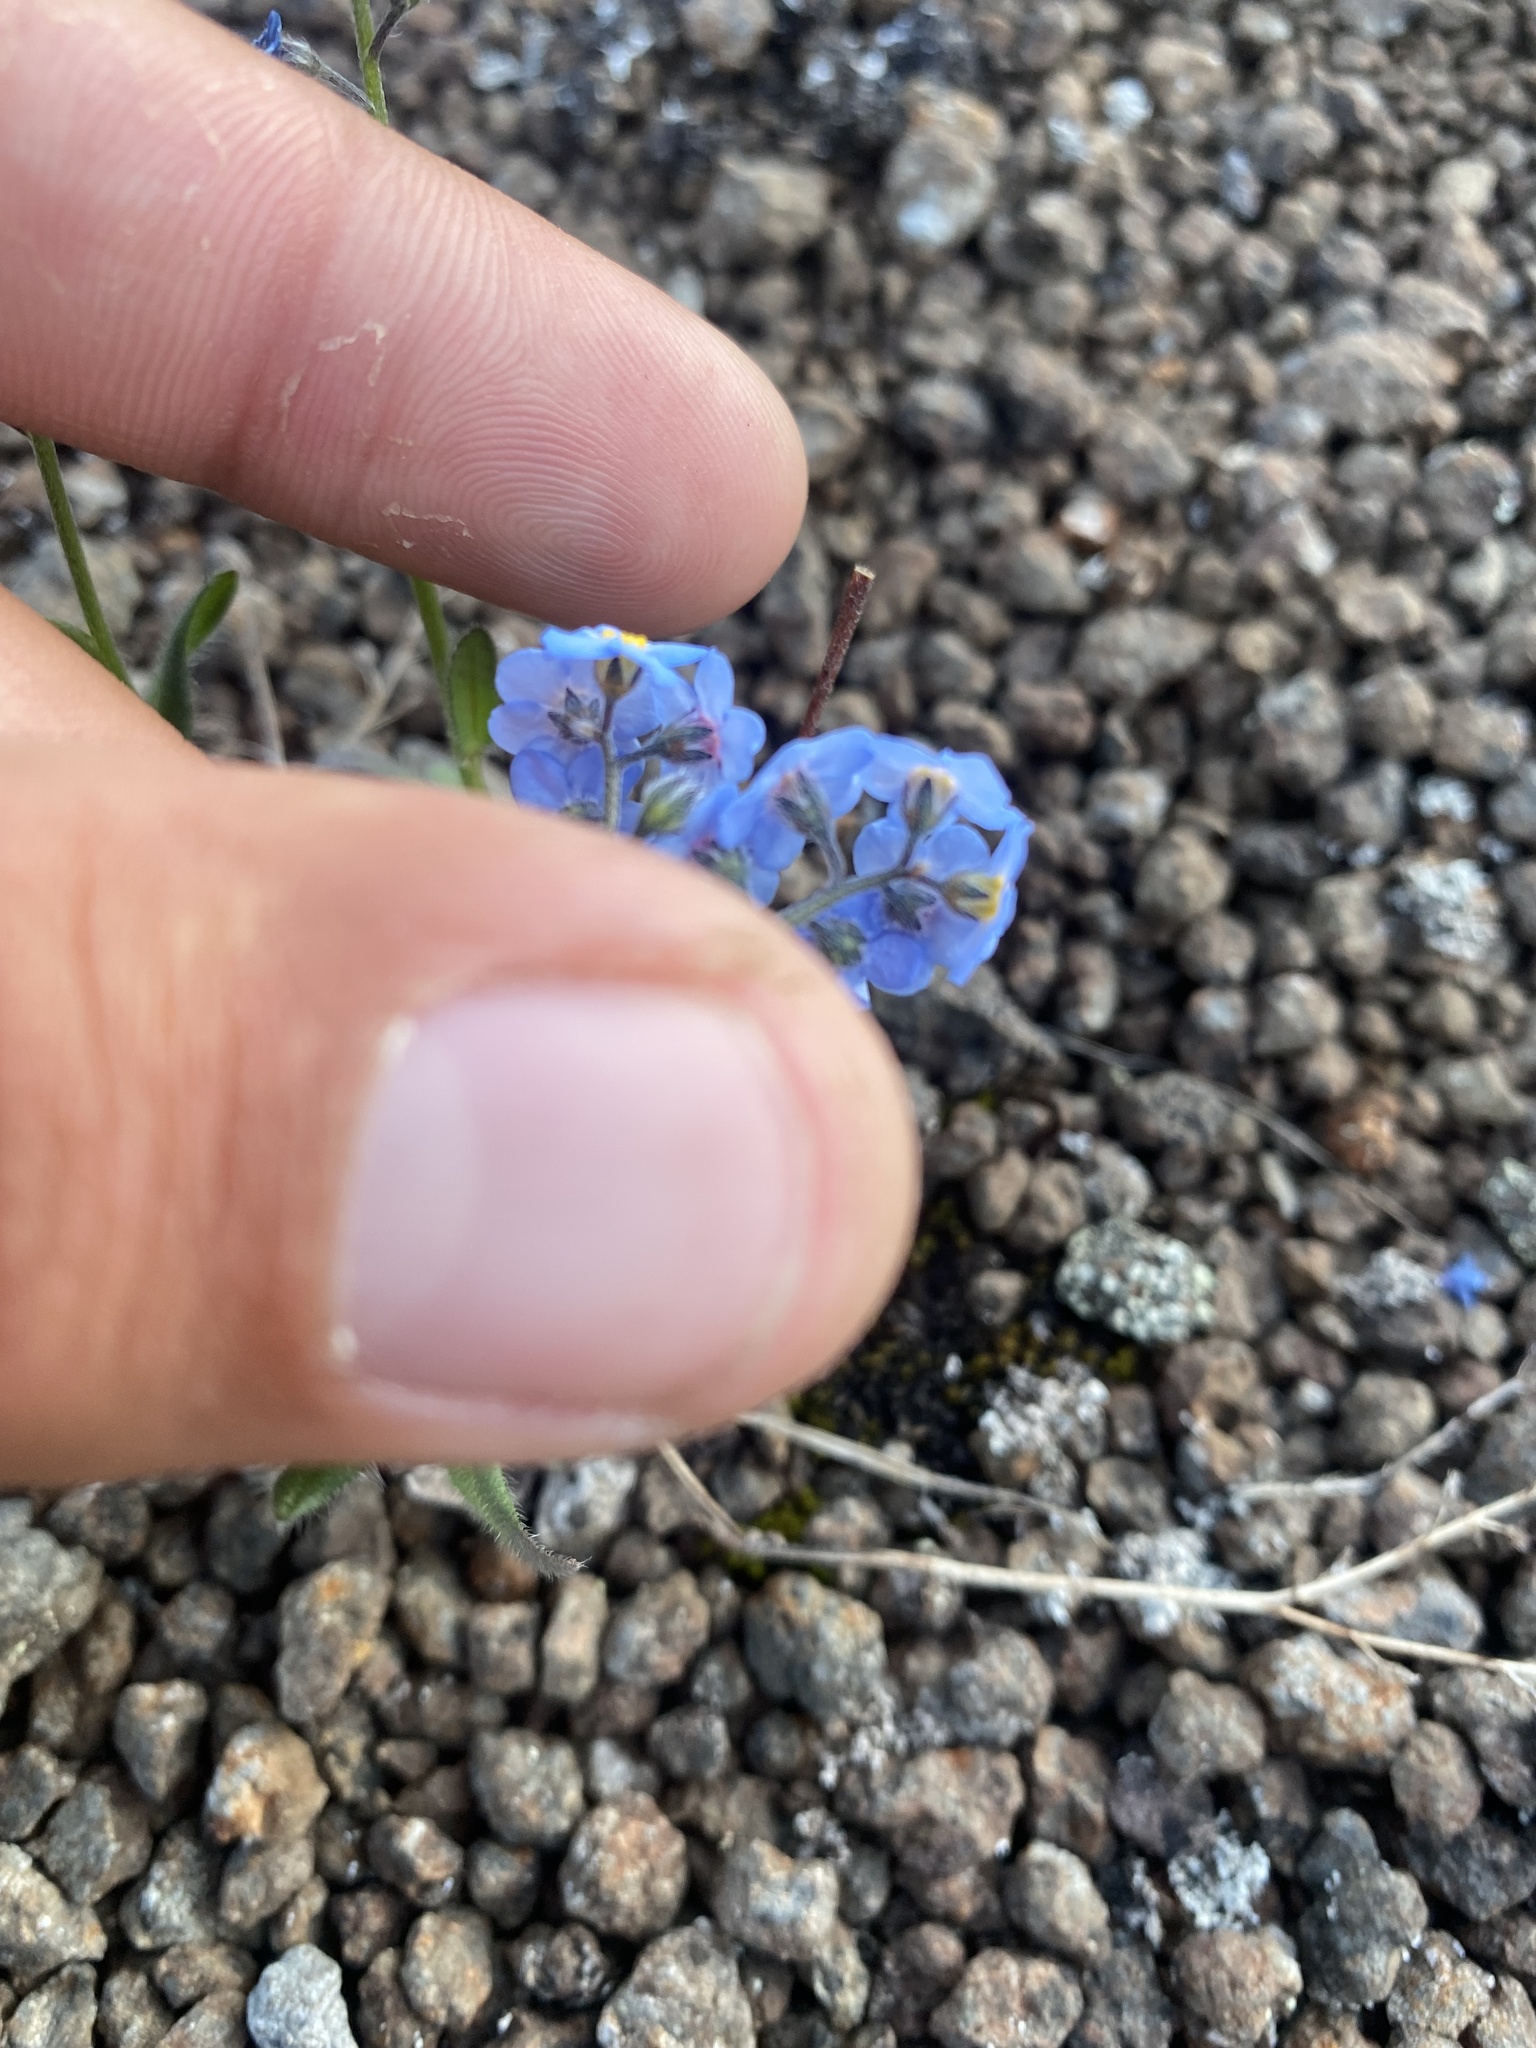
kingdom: Plantae
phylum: Tracheophyta
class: Magnoliopsida
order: Boraginales
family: Boraginaceae
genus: Myosotis
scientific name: Myosotis asiatica
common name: Asian forget-me-not
